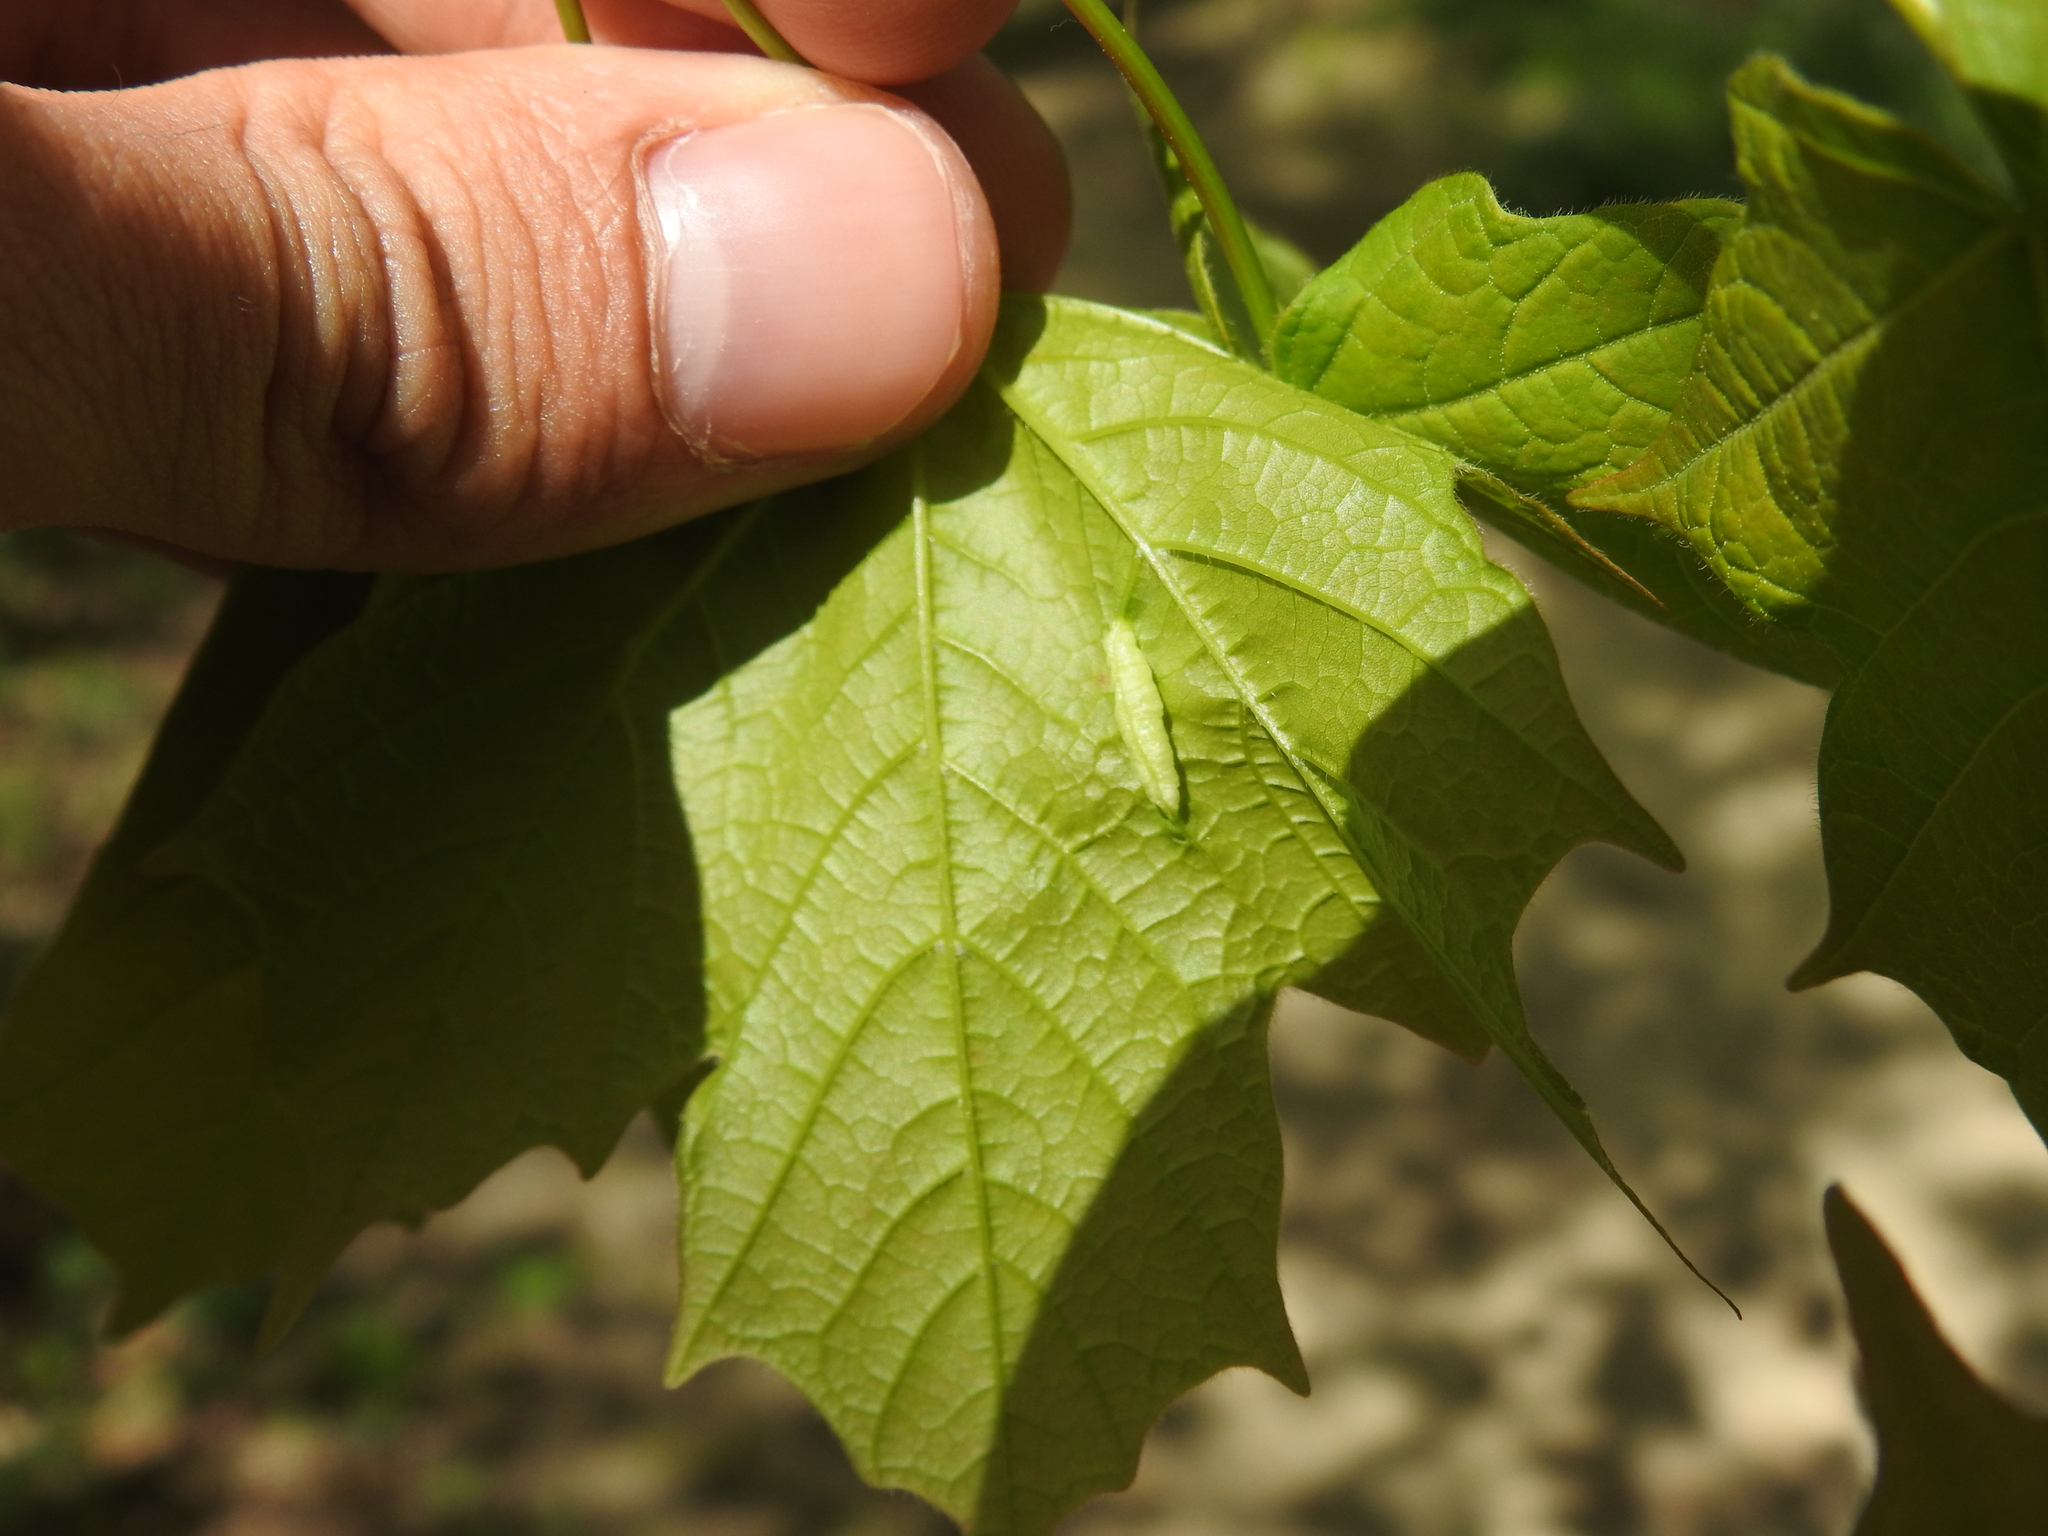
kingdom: Animalia
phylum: Arthropoda
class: Insecta
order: Diptera
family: Cecidomyiidae
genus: Dasineura
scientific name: Dasineura communis
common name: Gouty vein midge
